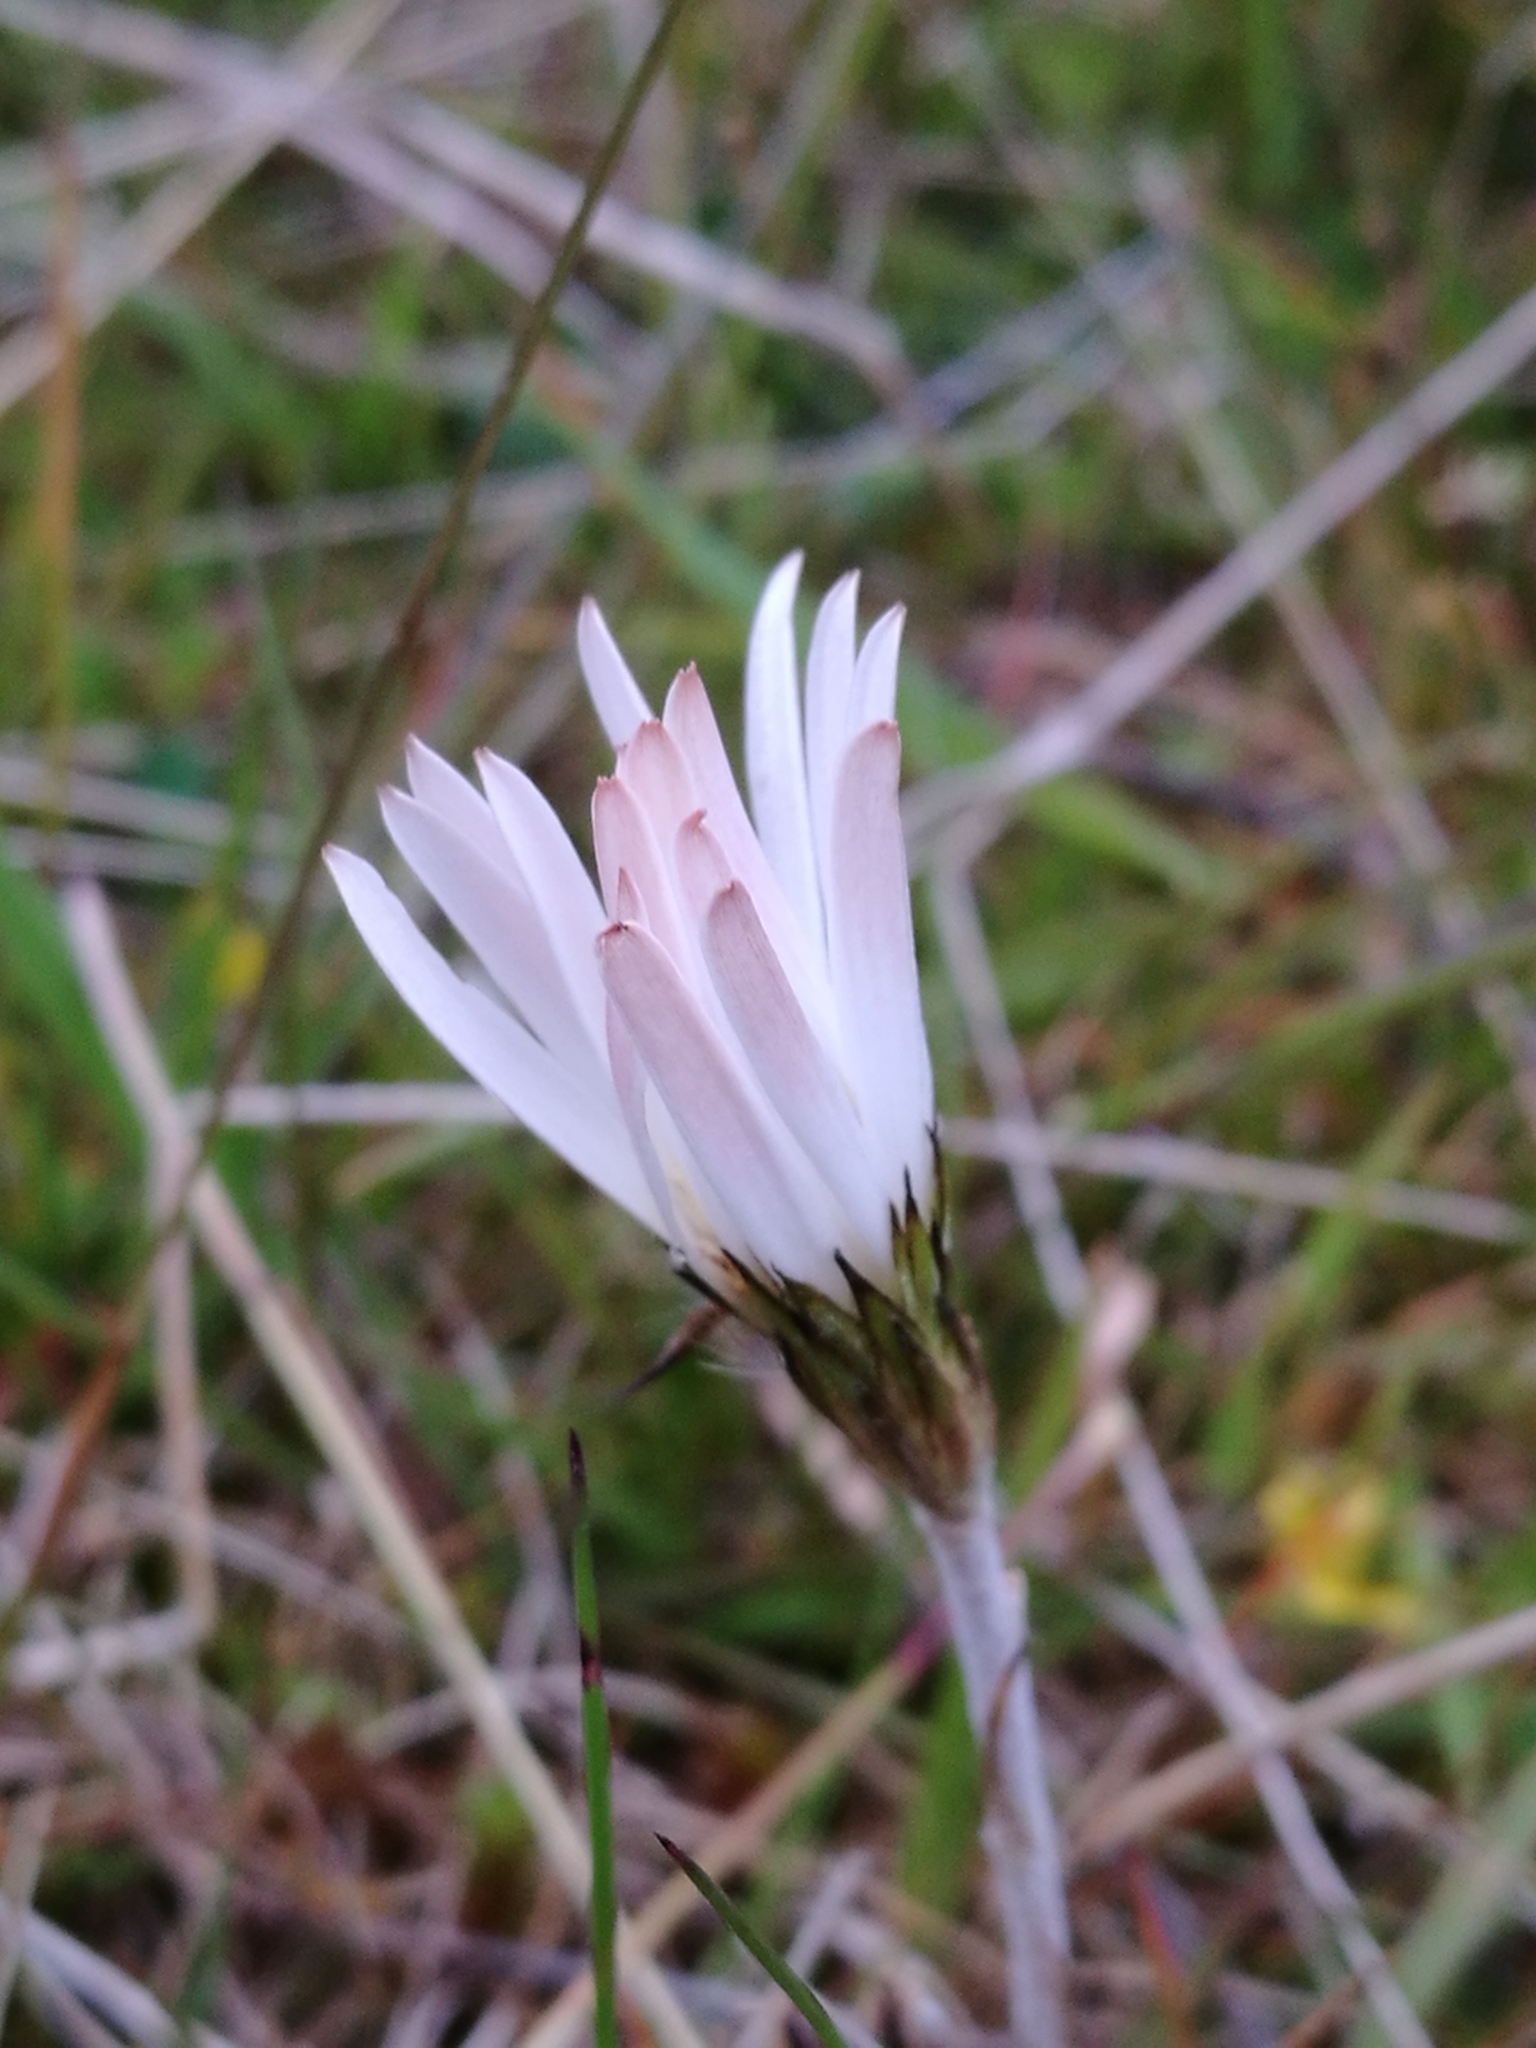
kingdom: Plantae
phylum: Tracheophyta
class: Magnoliopsida
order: Asterales
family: Asteraceae
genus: Celmisia
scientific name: Celmisia gracilenta
